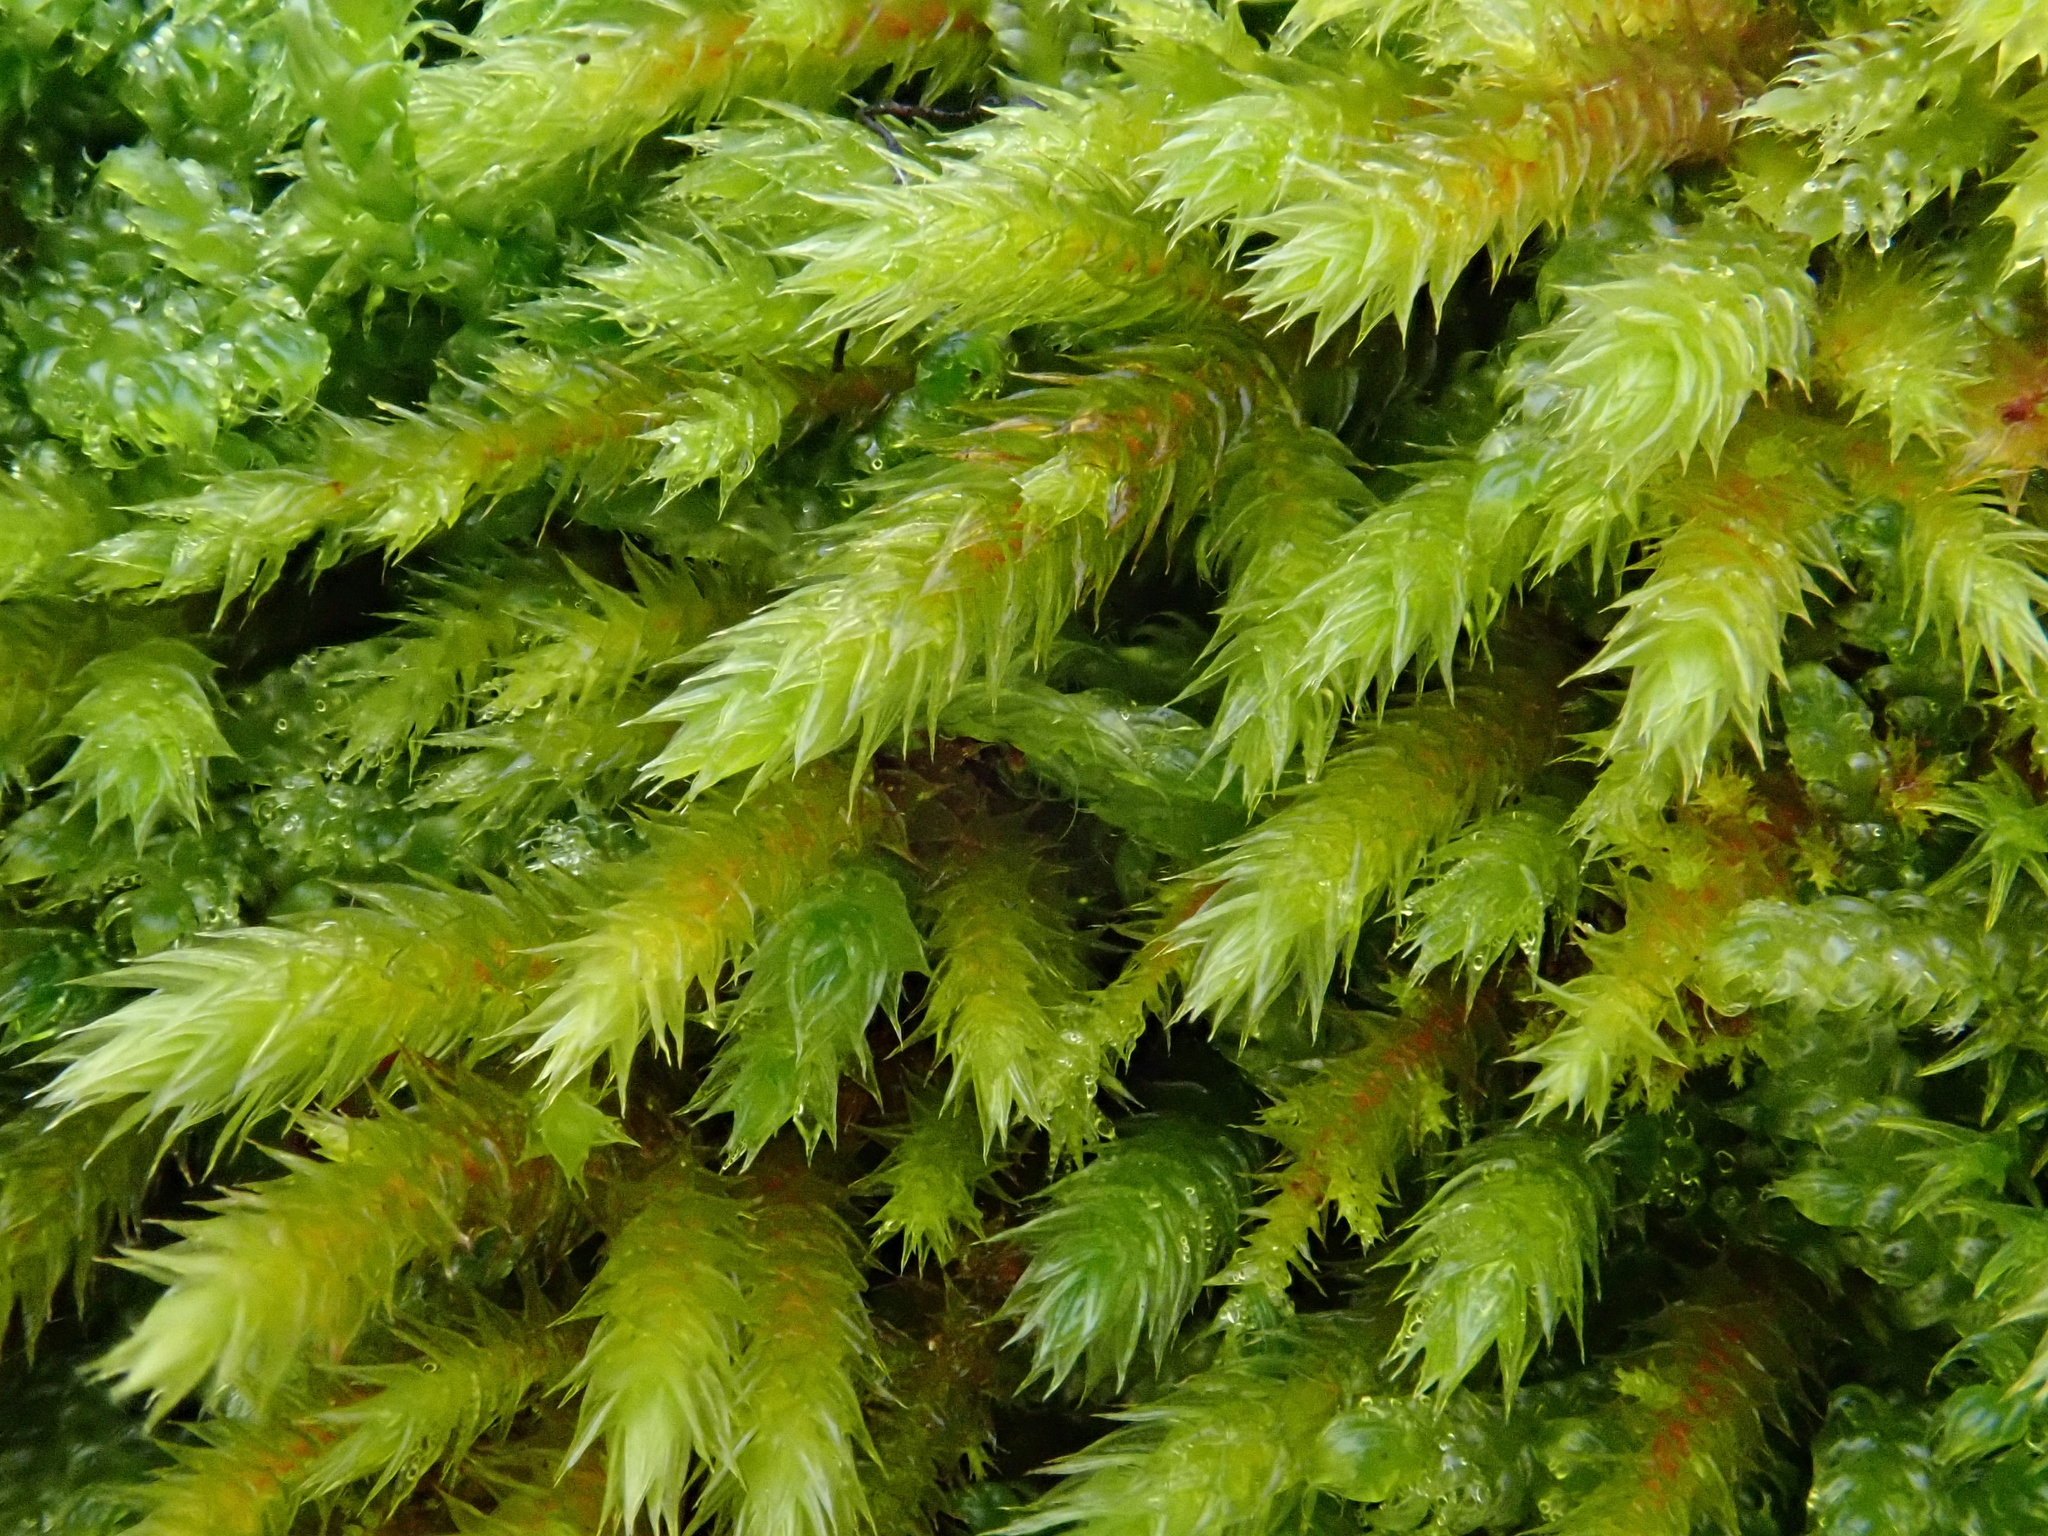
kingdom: Plantae
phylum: Bryophyta
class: Bryopsida
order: Hypnales
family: Leucodontaceae
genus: Leucodon
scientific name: Leucodon sciuroides
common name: Squirrel-tail moss
